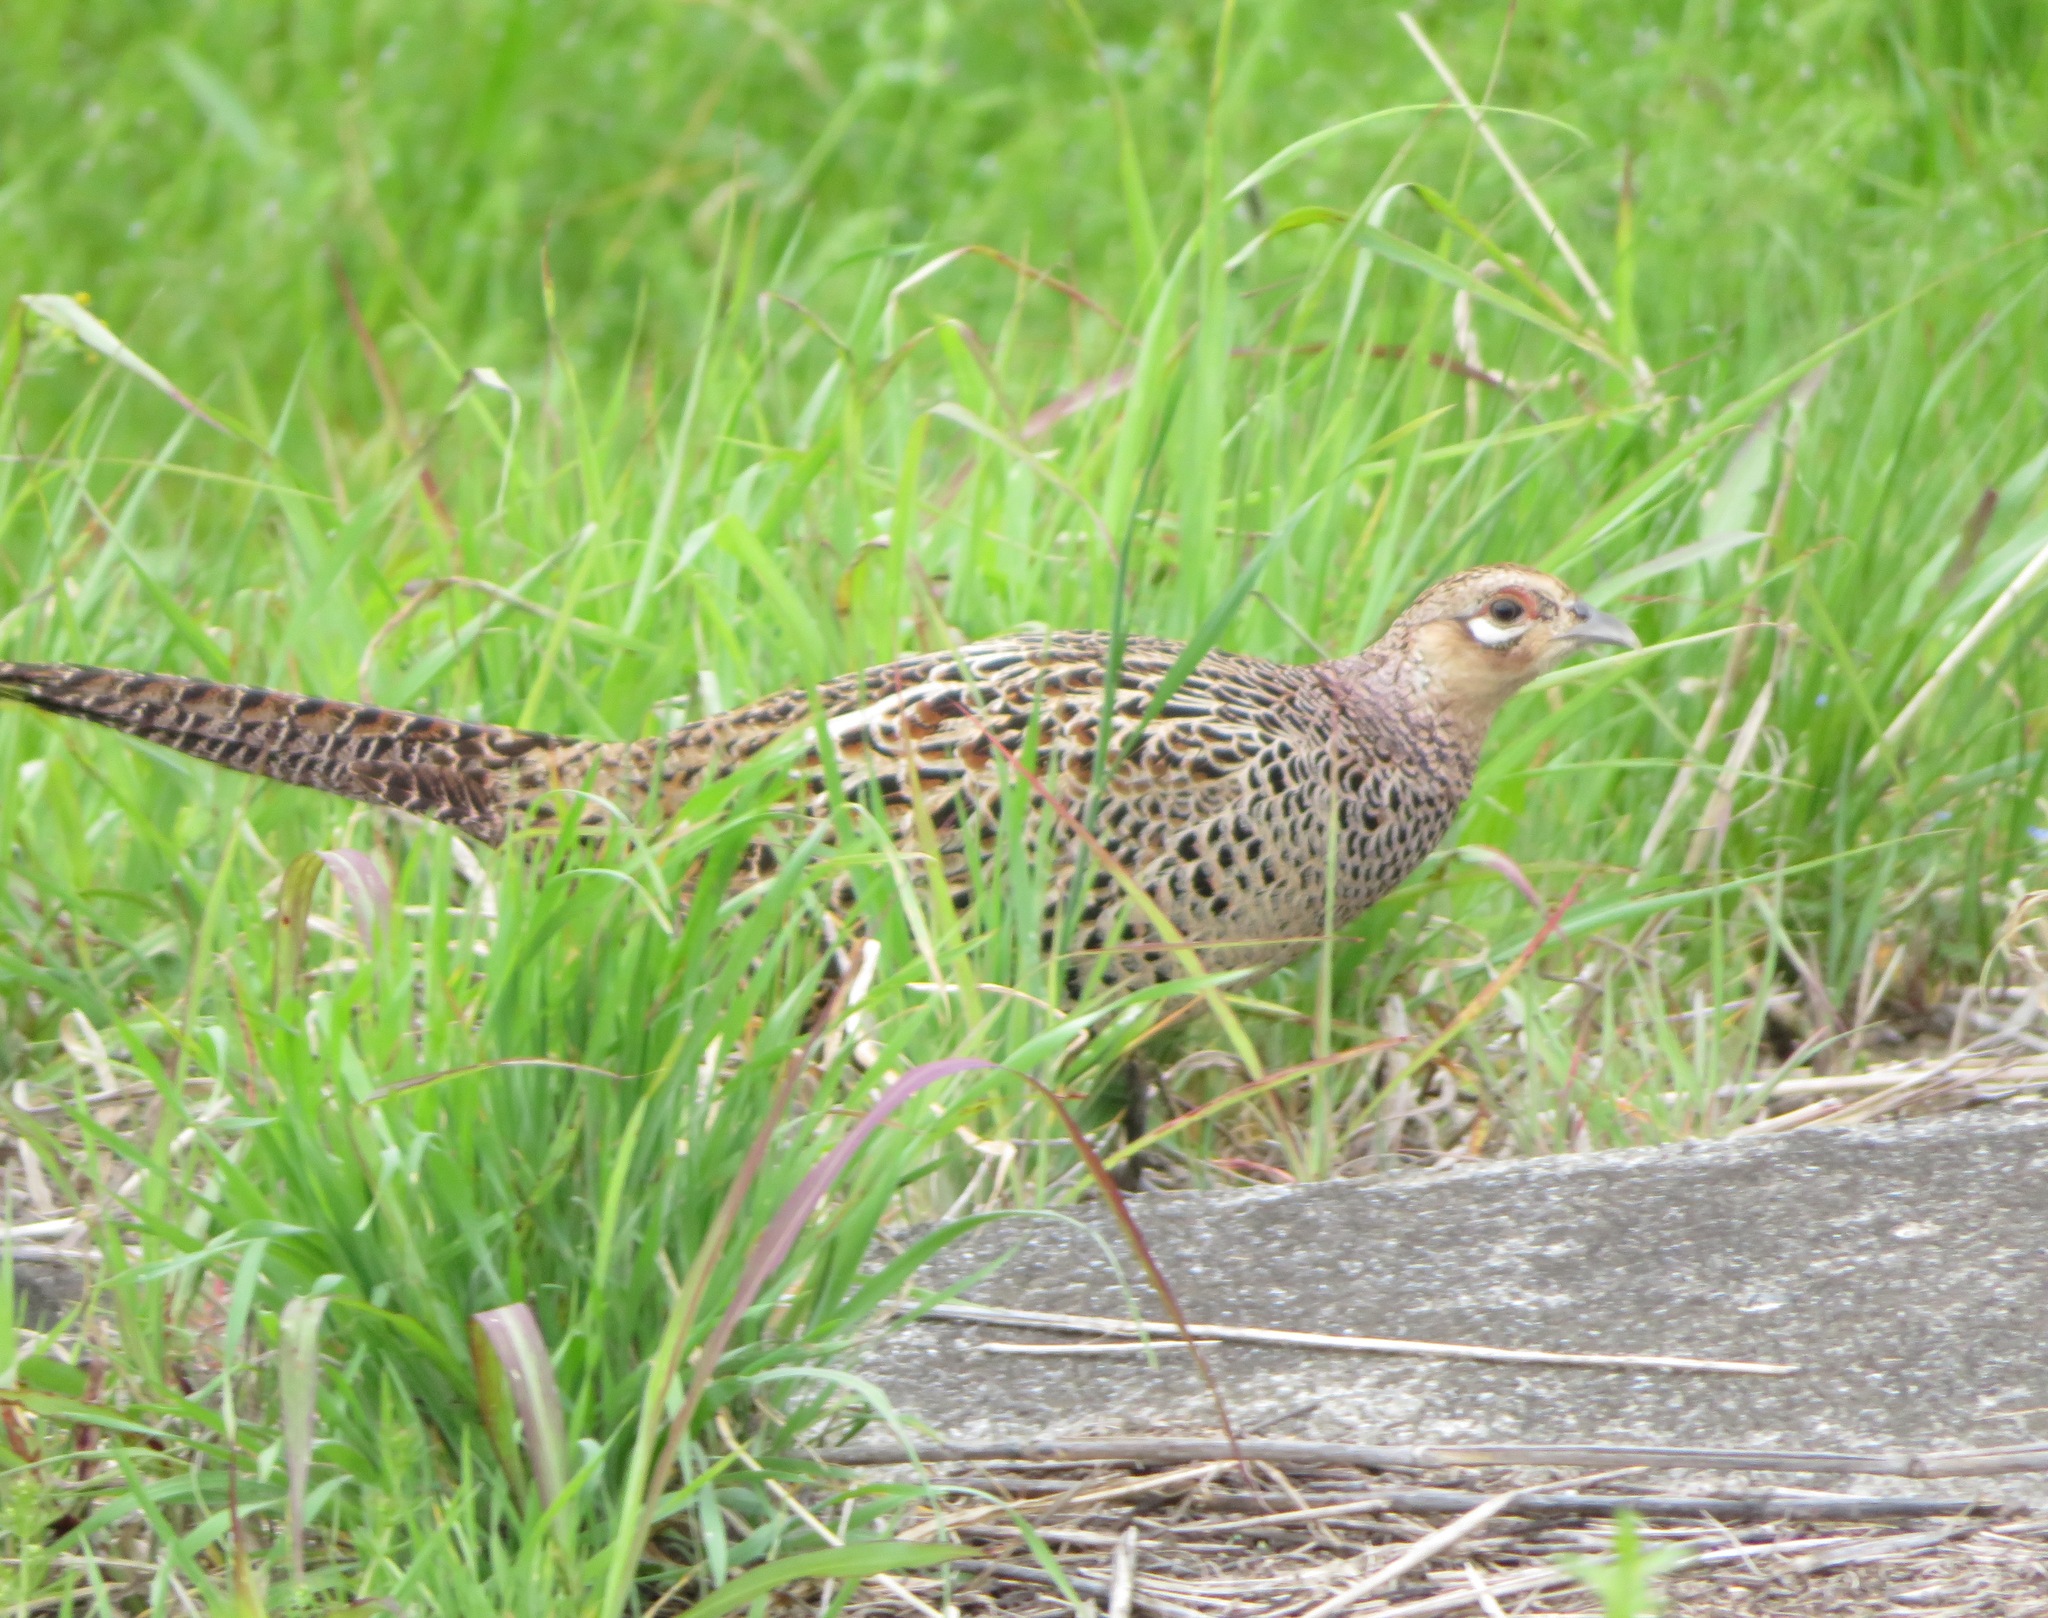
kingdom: Animalia
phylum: Chordata
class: Aves
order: Galliformes
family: Phasianidae
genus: Phasianus
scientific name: Phasianus versicolor
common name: Green pheasant
